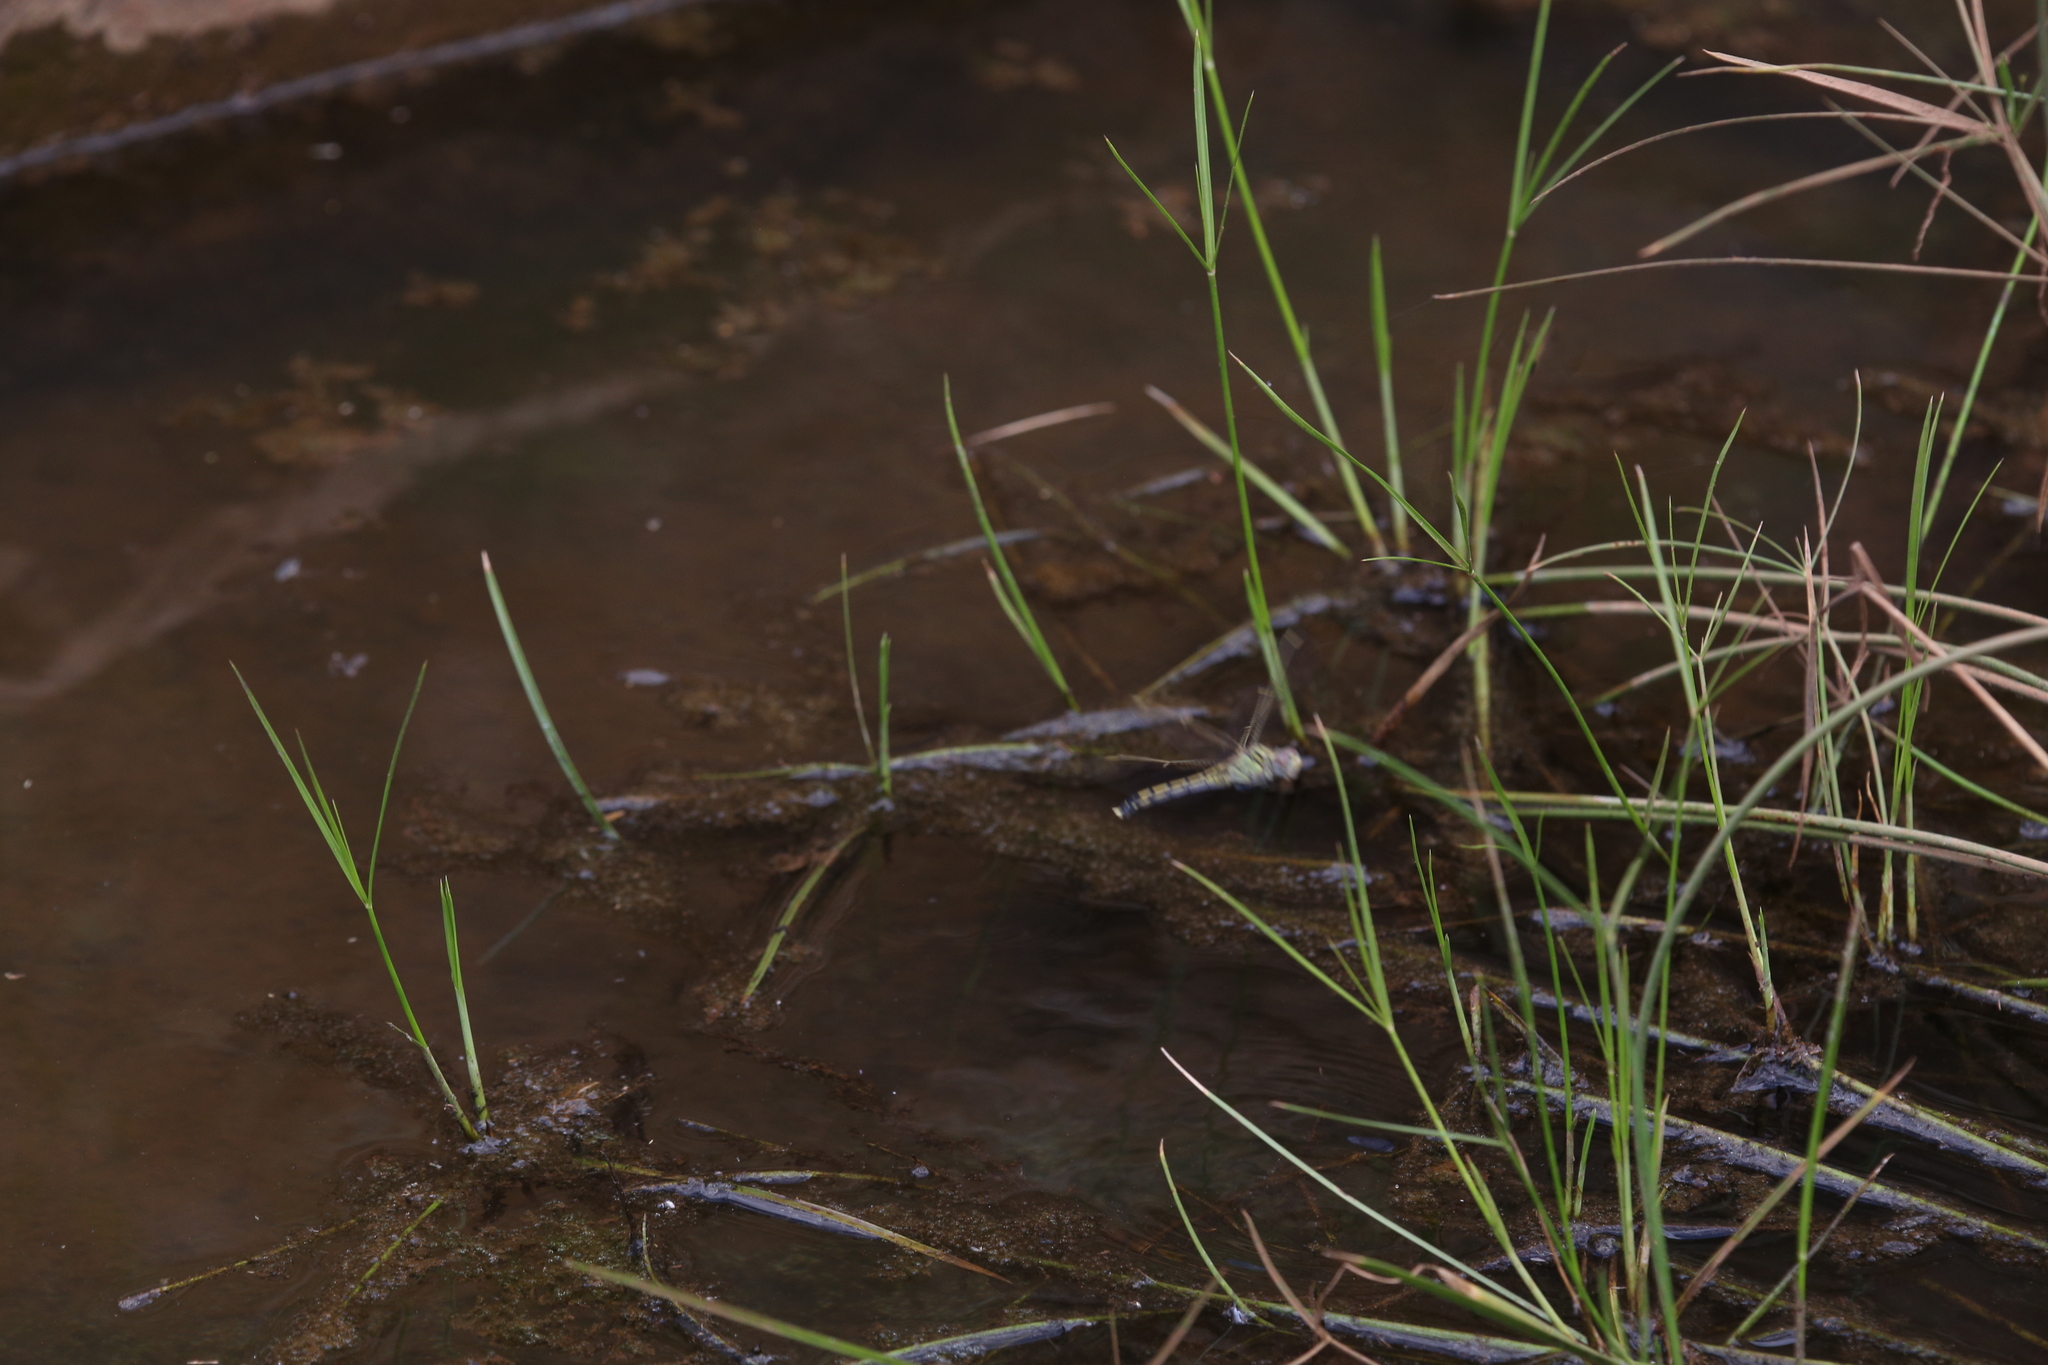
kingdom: Animalia
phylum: Arthropoda
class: Insecta
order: Odonata
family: Libellulidae
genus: Orthetrum
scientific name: Orthetrum caledonicum
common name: Blue skimmer
